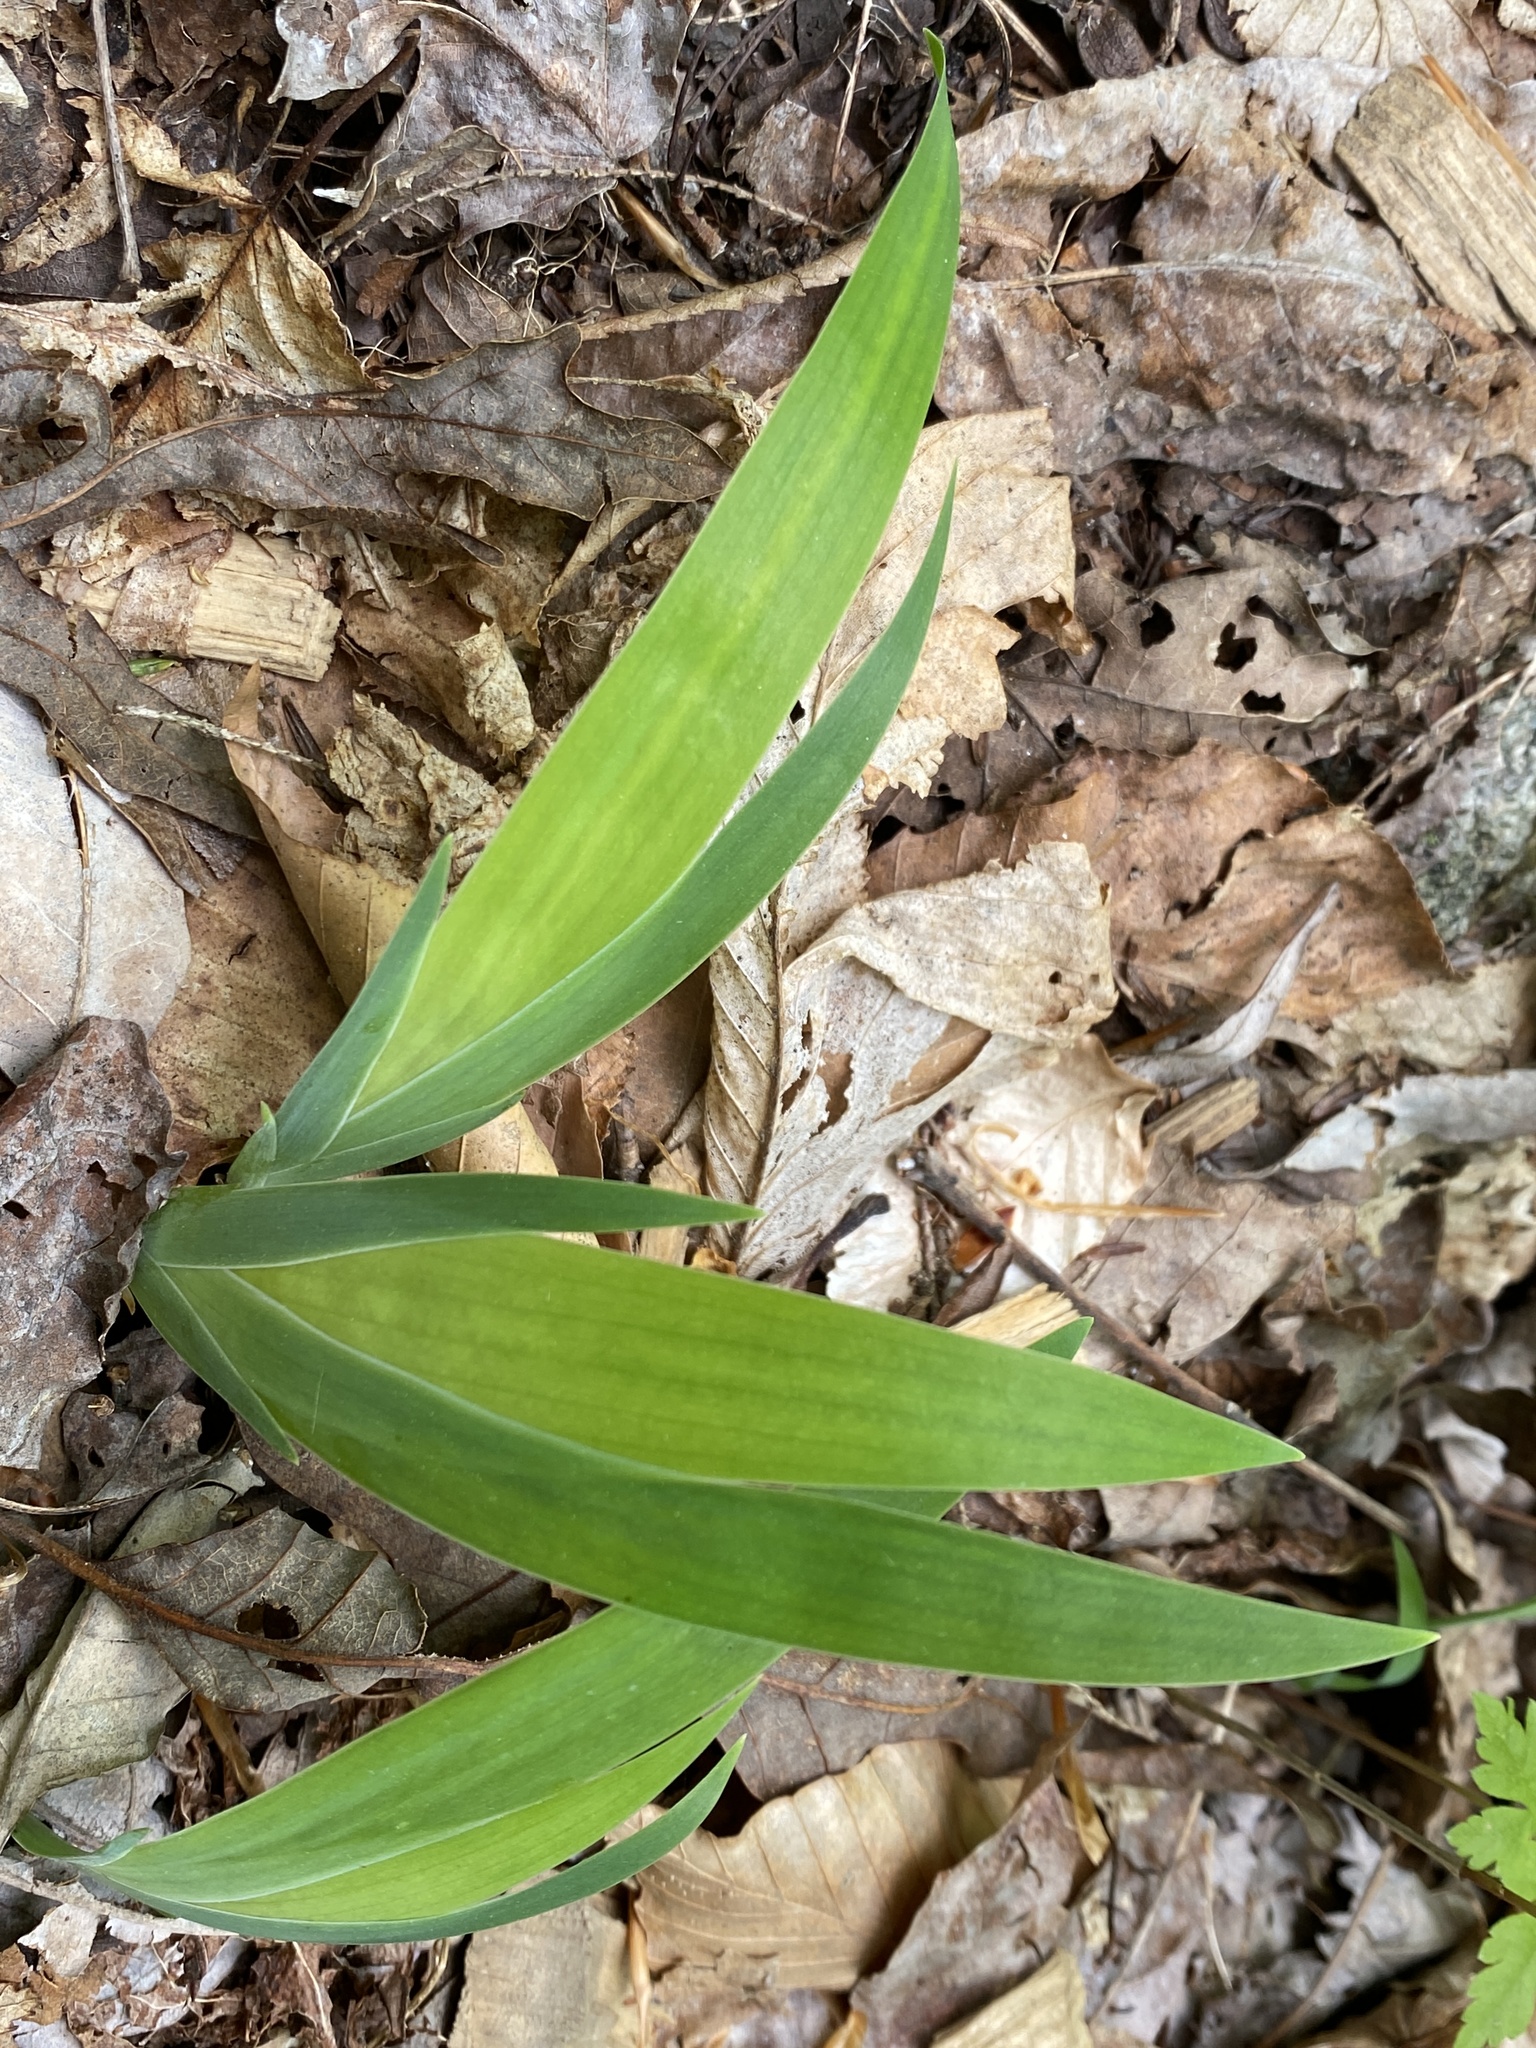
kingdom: Plantae
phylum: Tracheophyta
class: Liliopsida
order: Asparagales
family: Iridaceae
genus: Iris
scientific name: Iris cristata
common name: Crested iris
